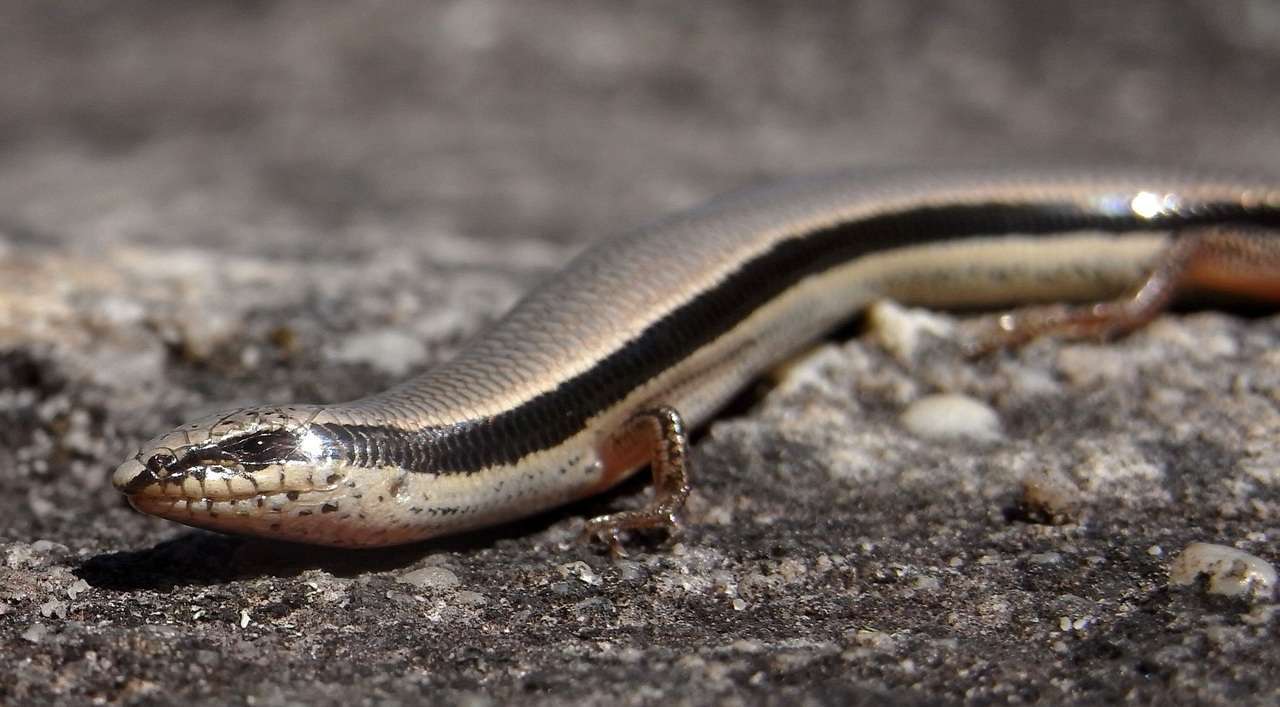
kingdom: Animalia
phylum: Chordata
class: Squamata
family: Scincidae
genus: Lerista
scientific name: Lerista bougainvillii
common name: South-eastern slider
